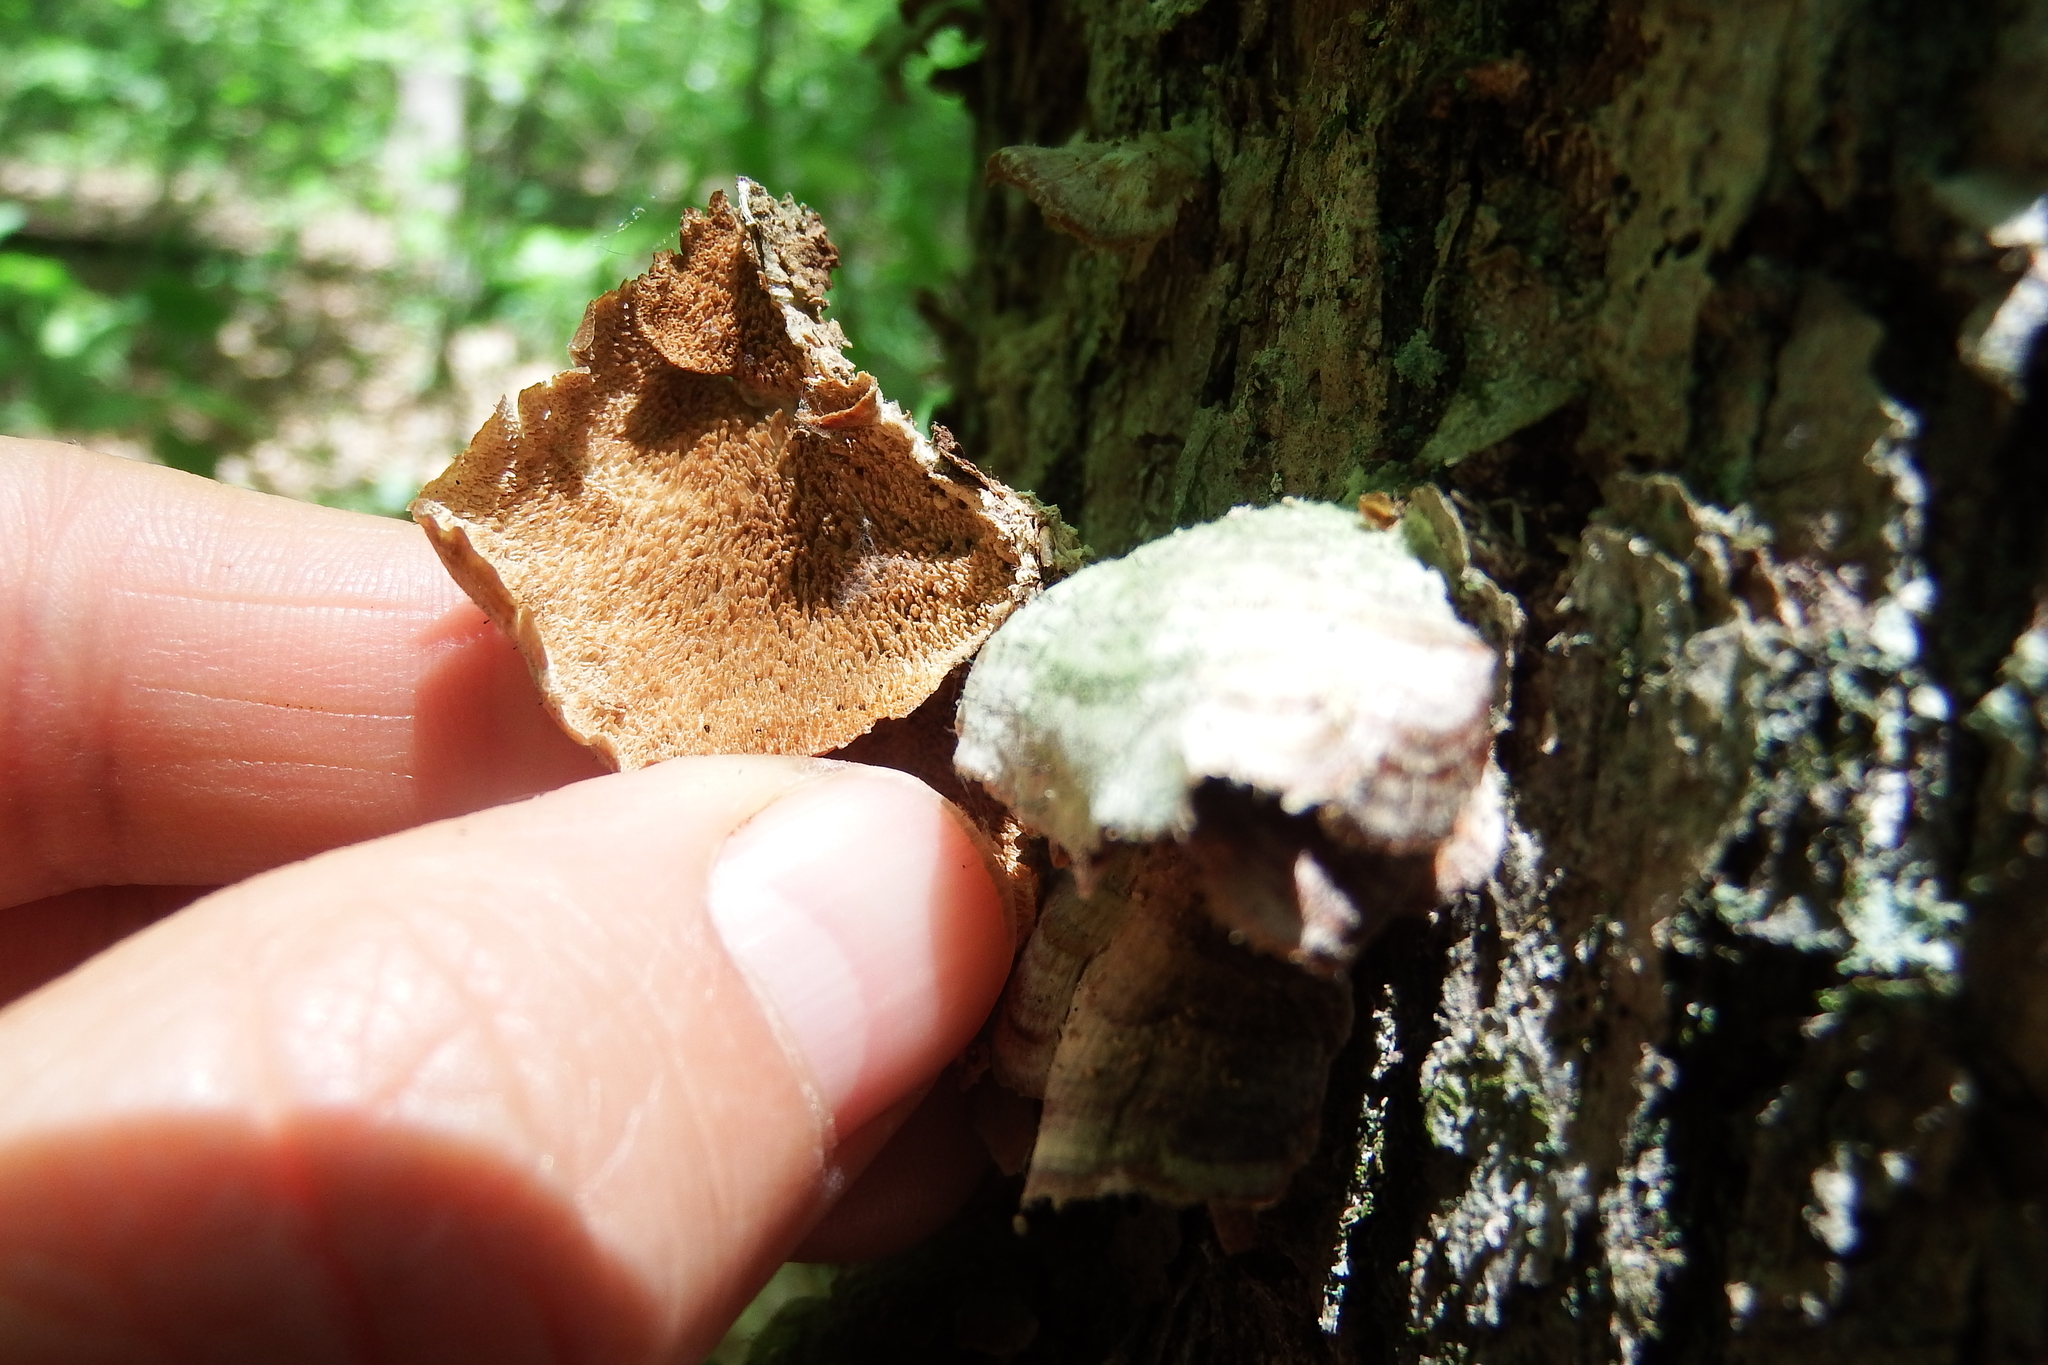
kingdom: Fungi
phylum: Basidiomycota
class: Agaricomycetes
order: Hymenochaetales
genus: Trichaptum
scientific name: Trichaptum biforme
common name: Violet-toothed polypore
